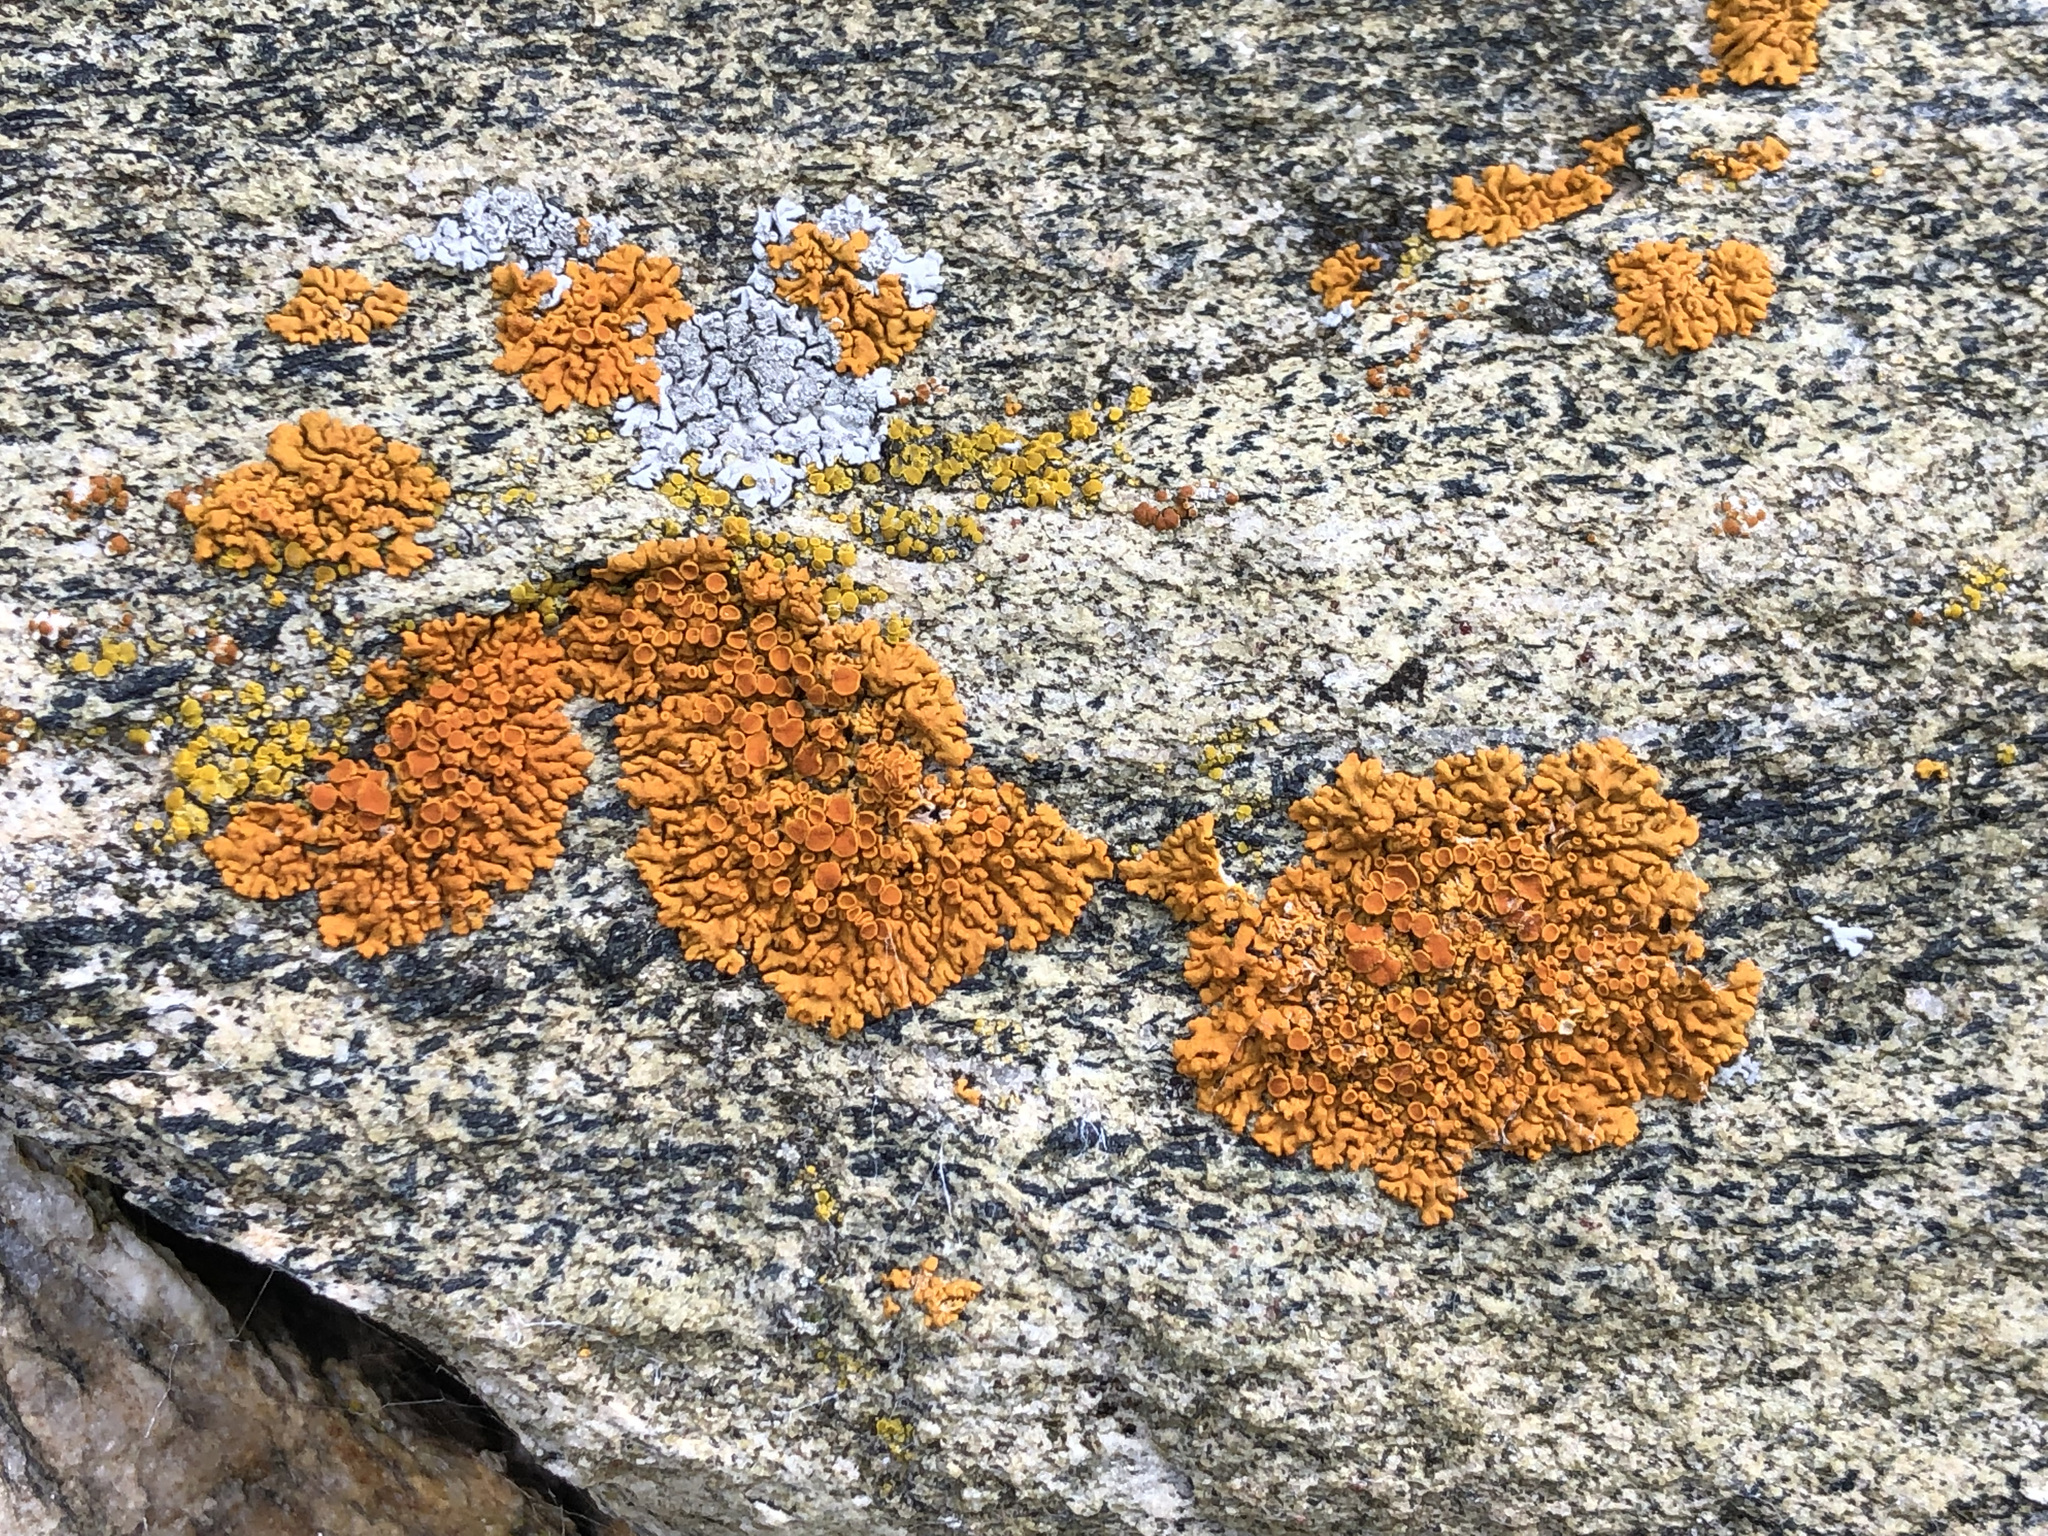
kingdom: Fungi
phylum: Ascomycota
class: Lecanoromycetes
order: Teloschistales
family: Teloschistaceae
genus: Xanthoria
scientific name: Xanthoria elegans
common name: Elegant sunburst lichen
